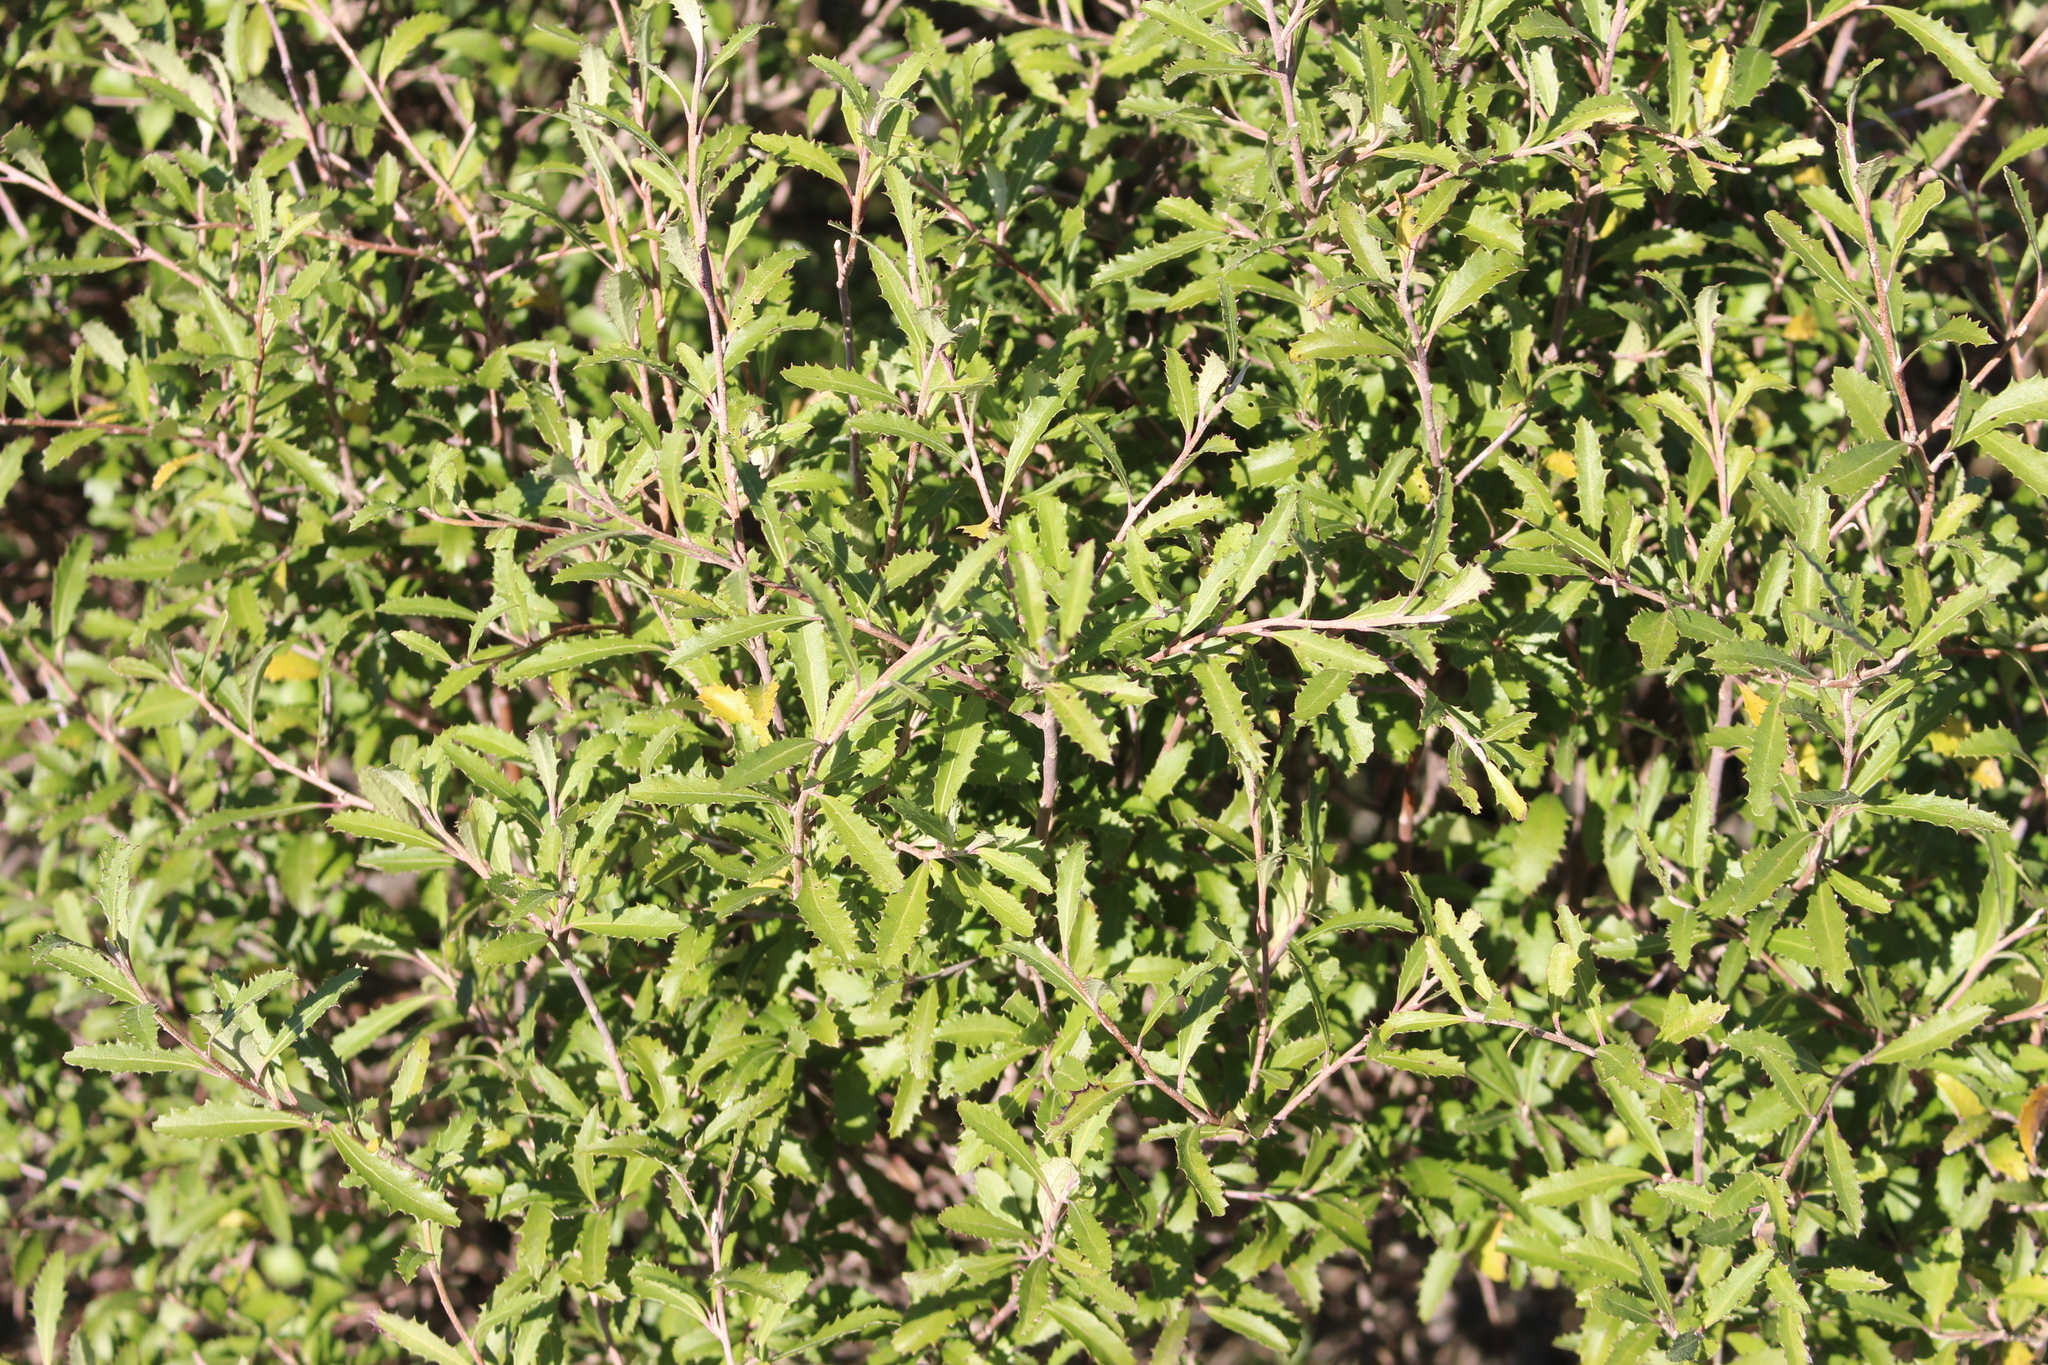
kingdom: Plantae
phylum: Tracheophyta
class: Magnoliopsida
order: Malvales
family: Malvaceae
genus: Hoheria
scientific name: Hoheria angustifolia
